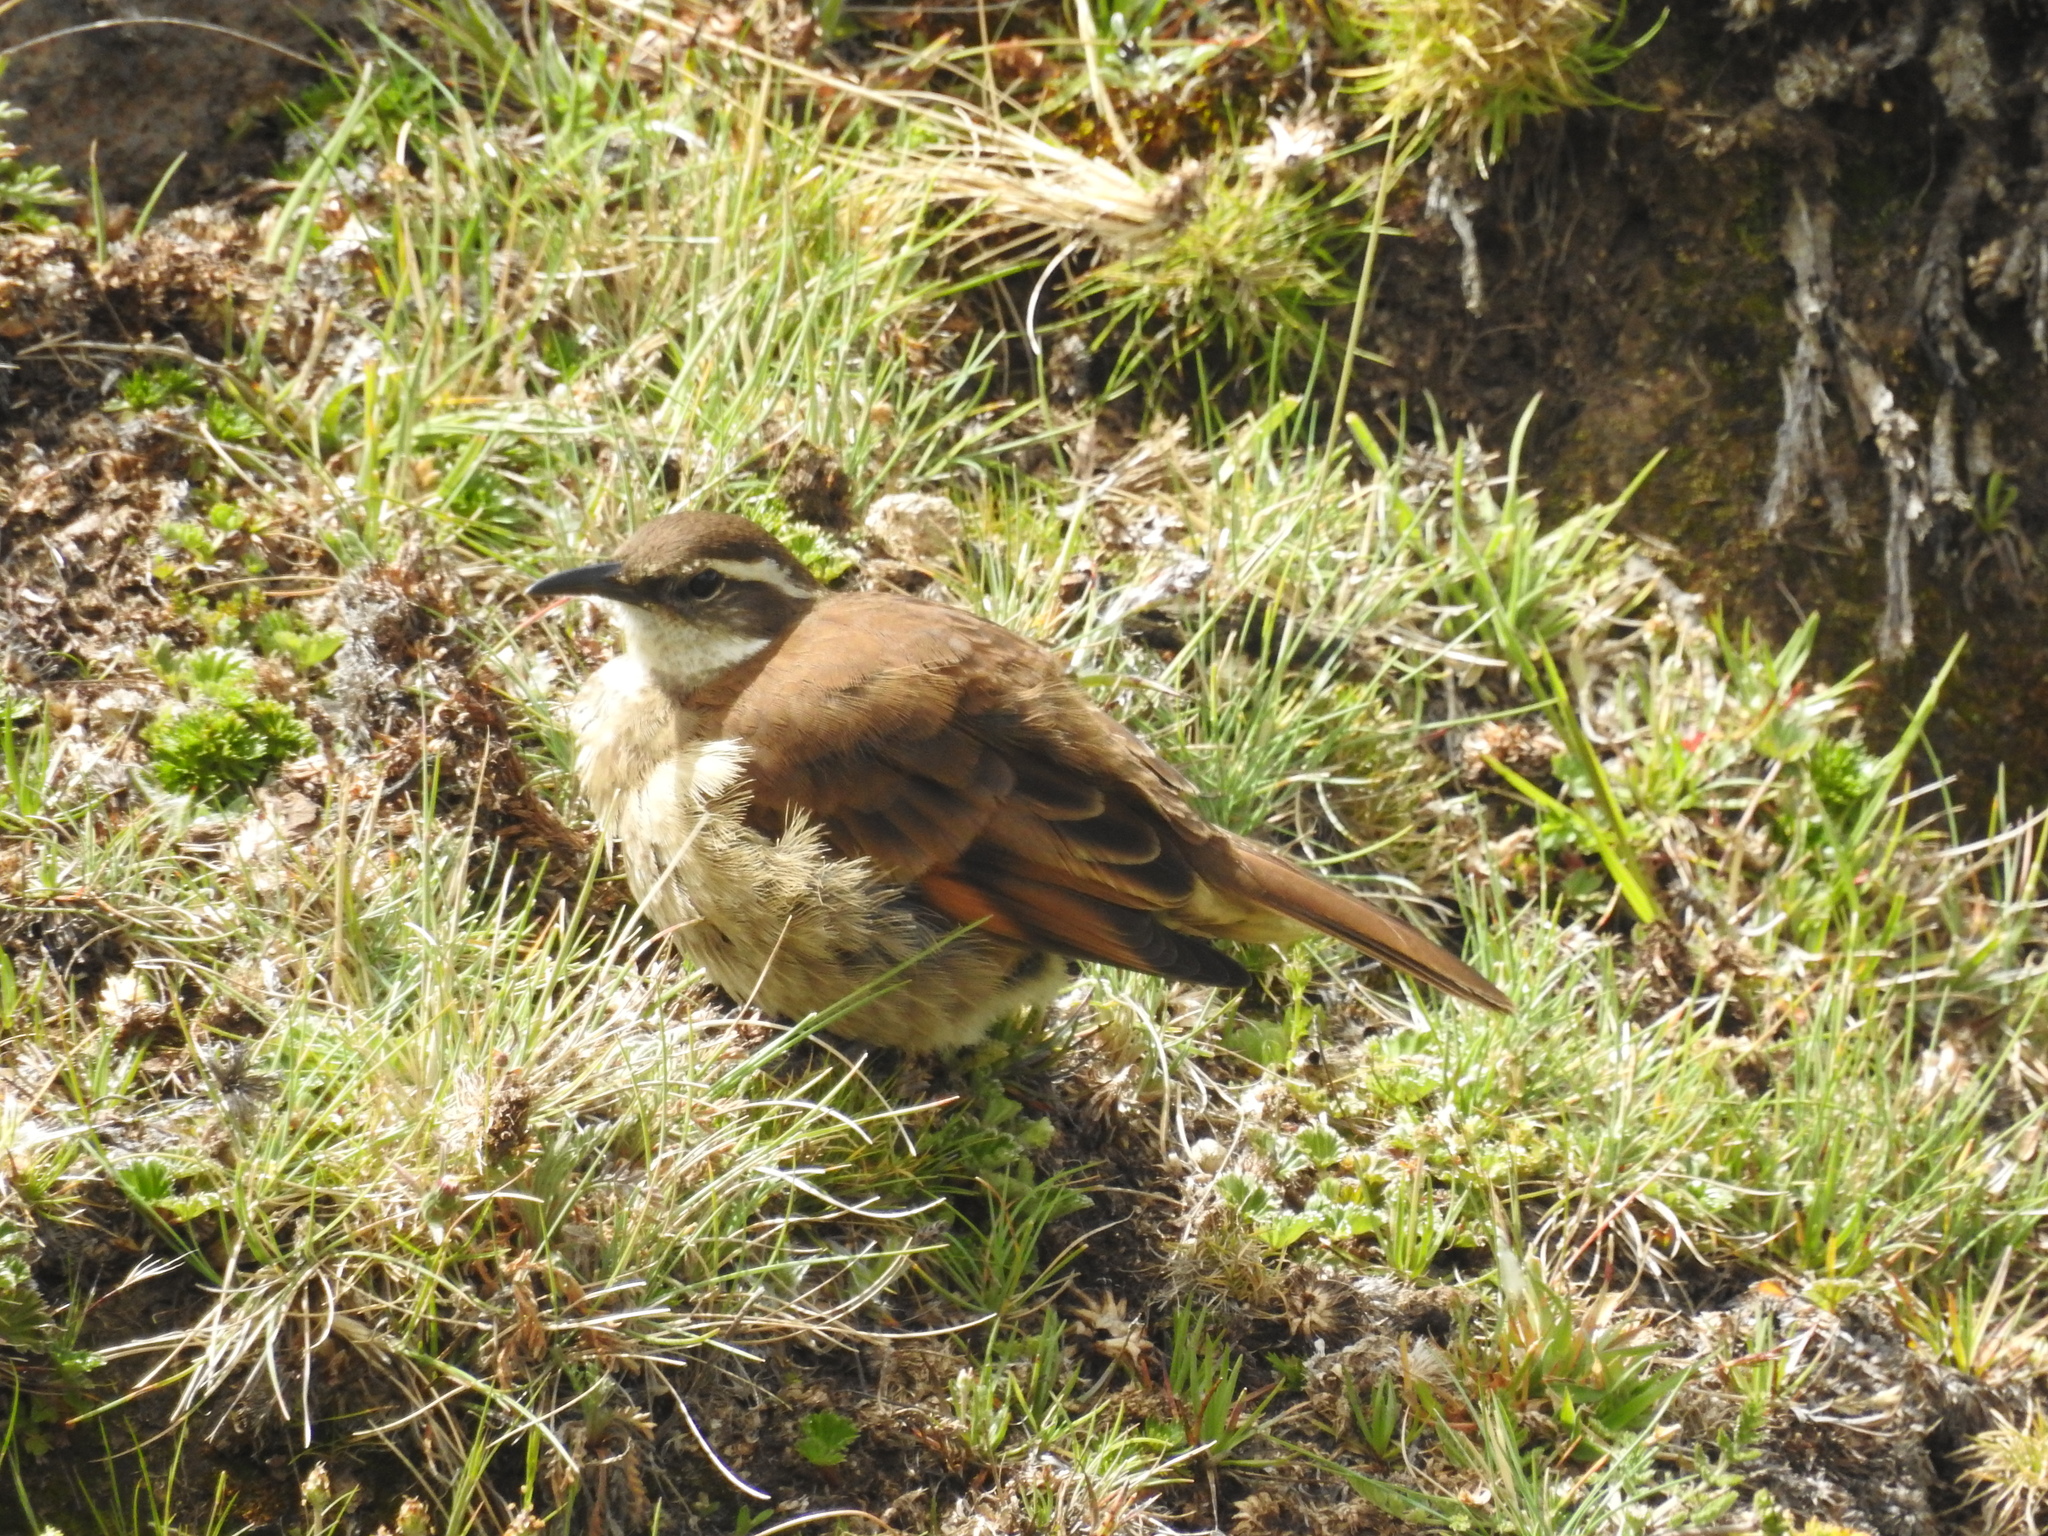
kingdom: Animalia
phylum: Chordata
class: Aves
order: Passeriformes
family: Furnariidae
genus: Cinclodes
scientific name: Cinclodes excelsior
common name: Stout-billed cinclodes
